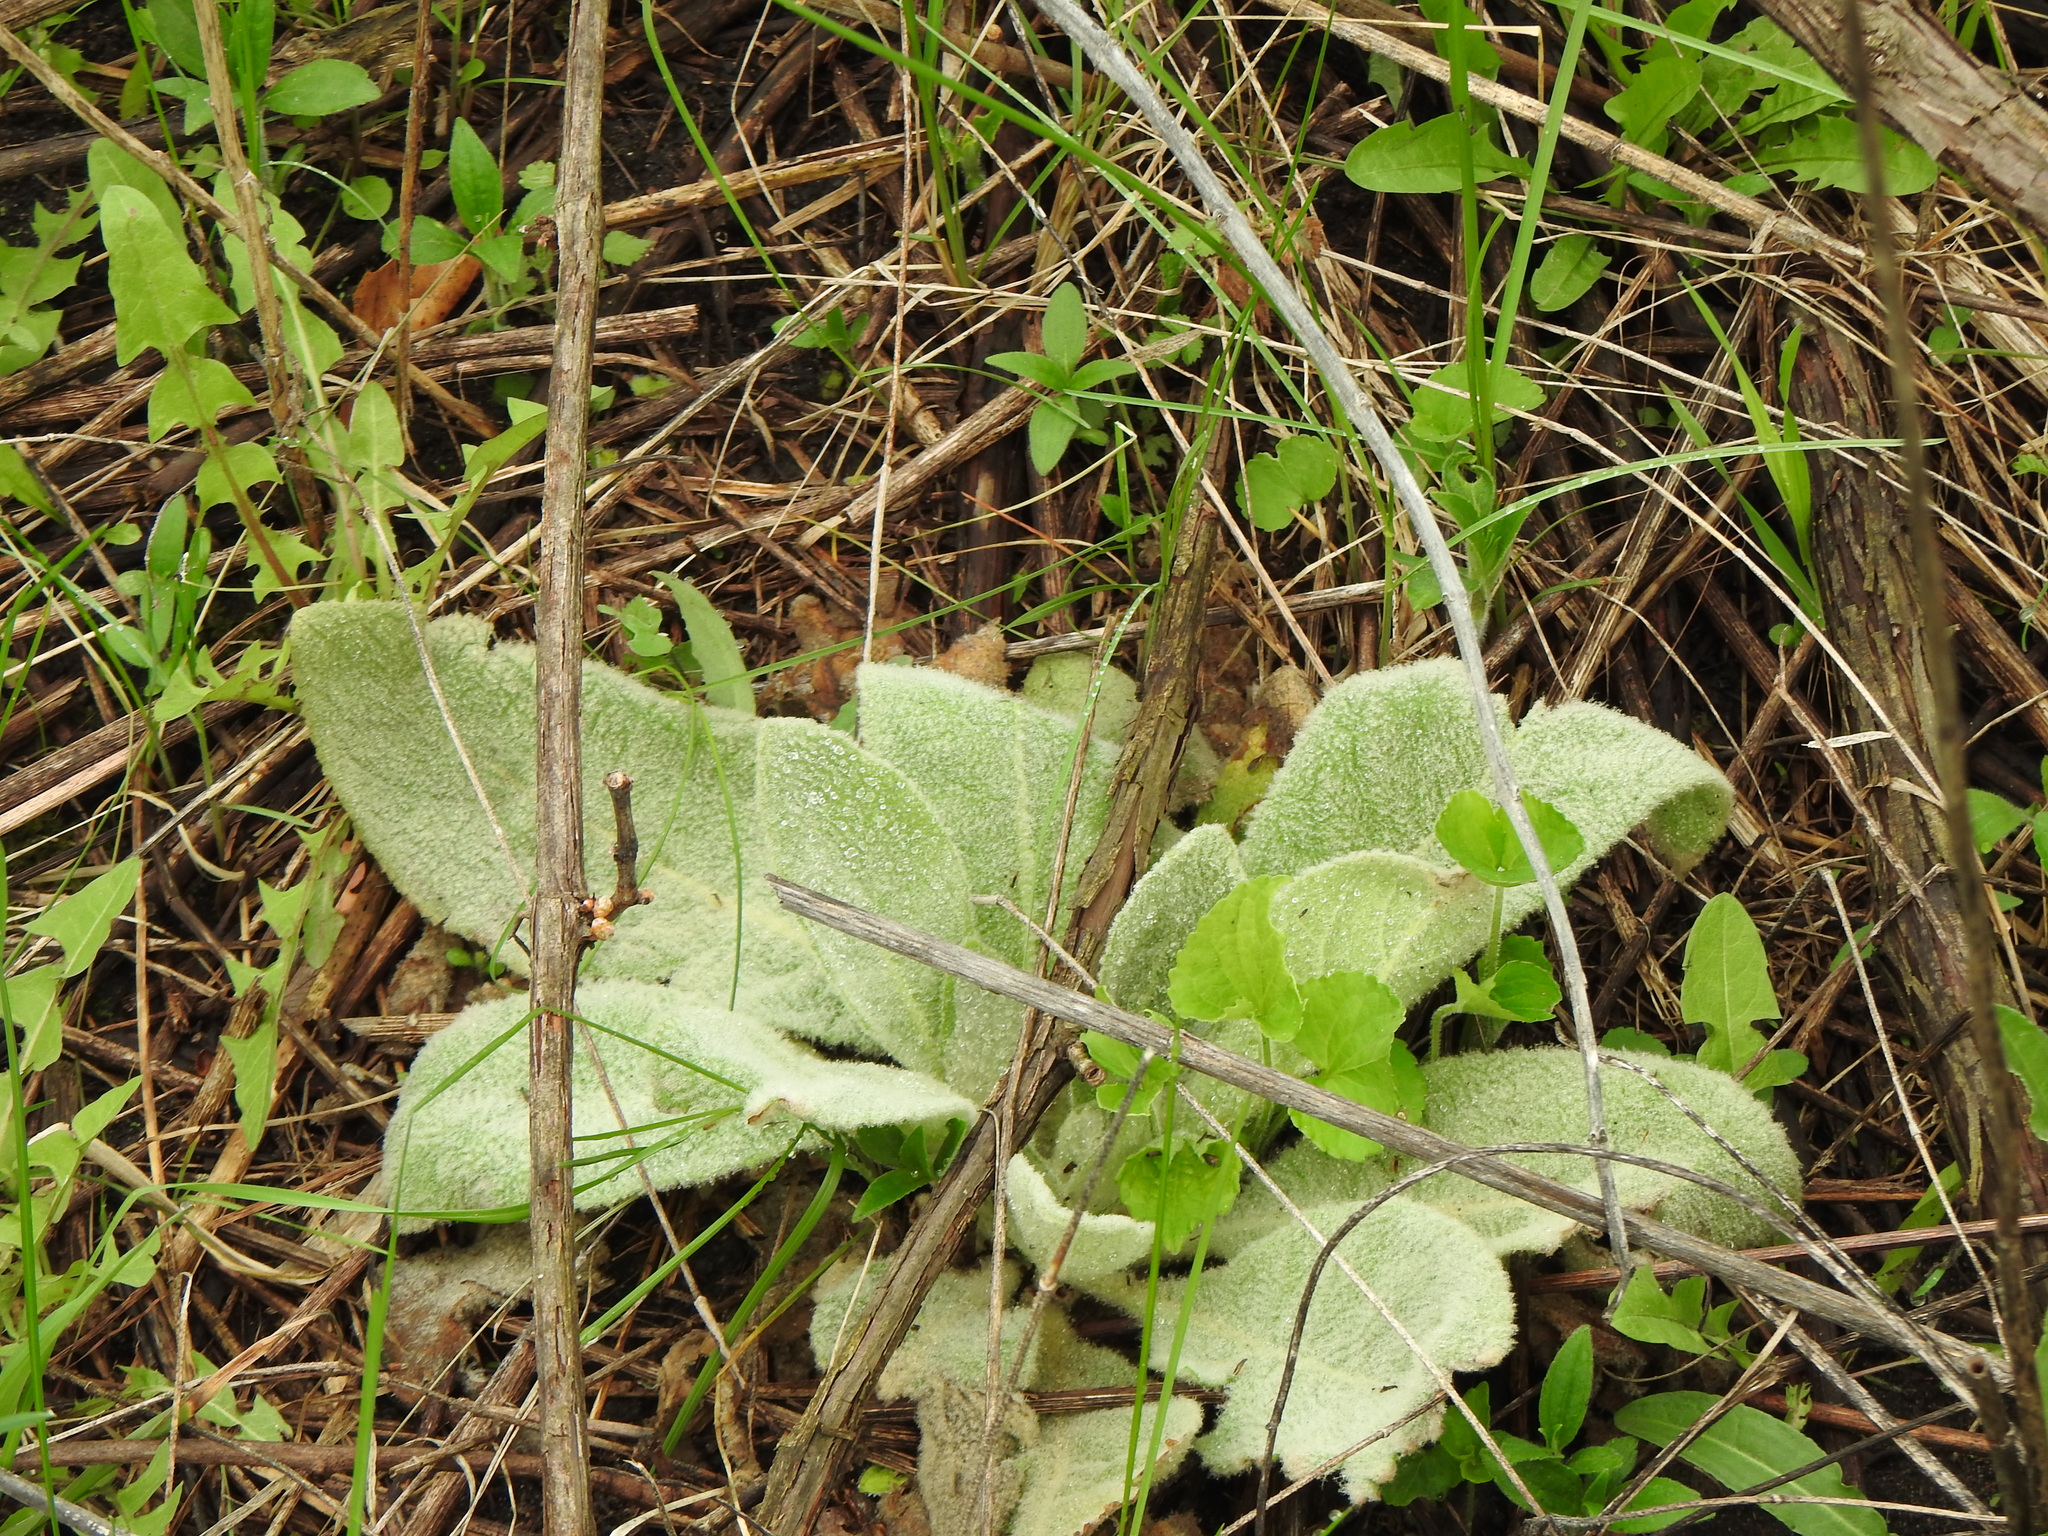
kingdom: Plantae
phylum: Tracheophyta
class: Magnoliopsida
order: Lamiales
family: Scrophulariaceae
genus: Verbascum
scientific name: Verbascum thapsus
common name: Common mullein
